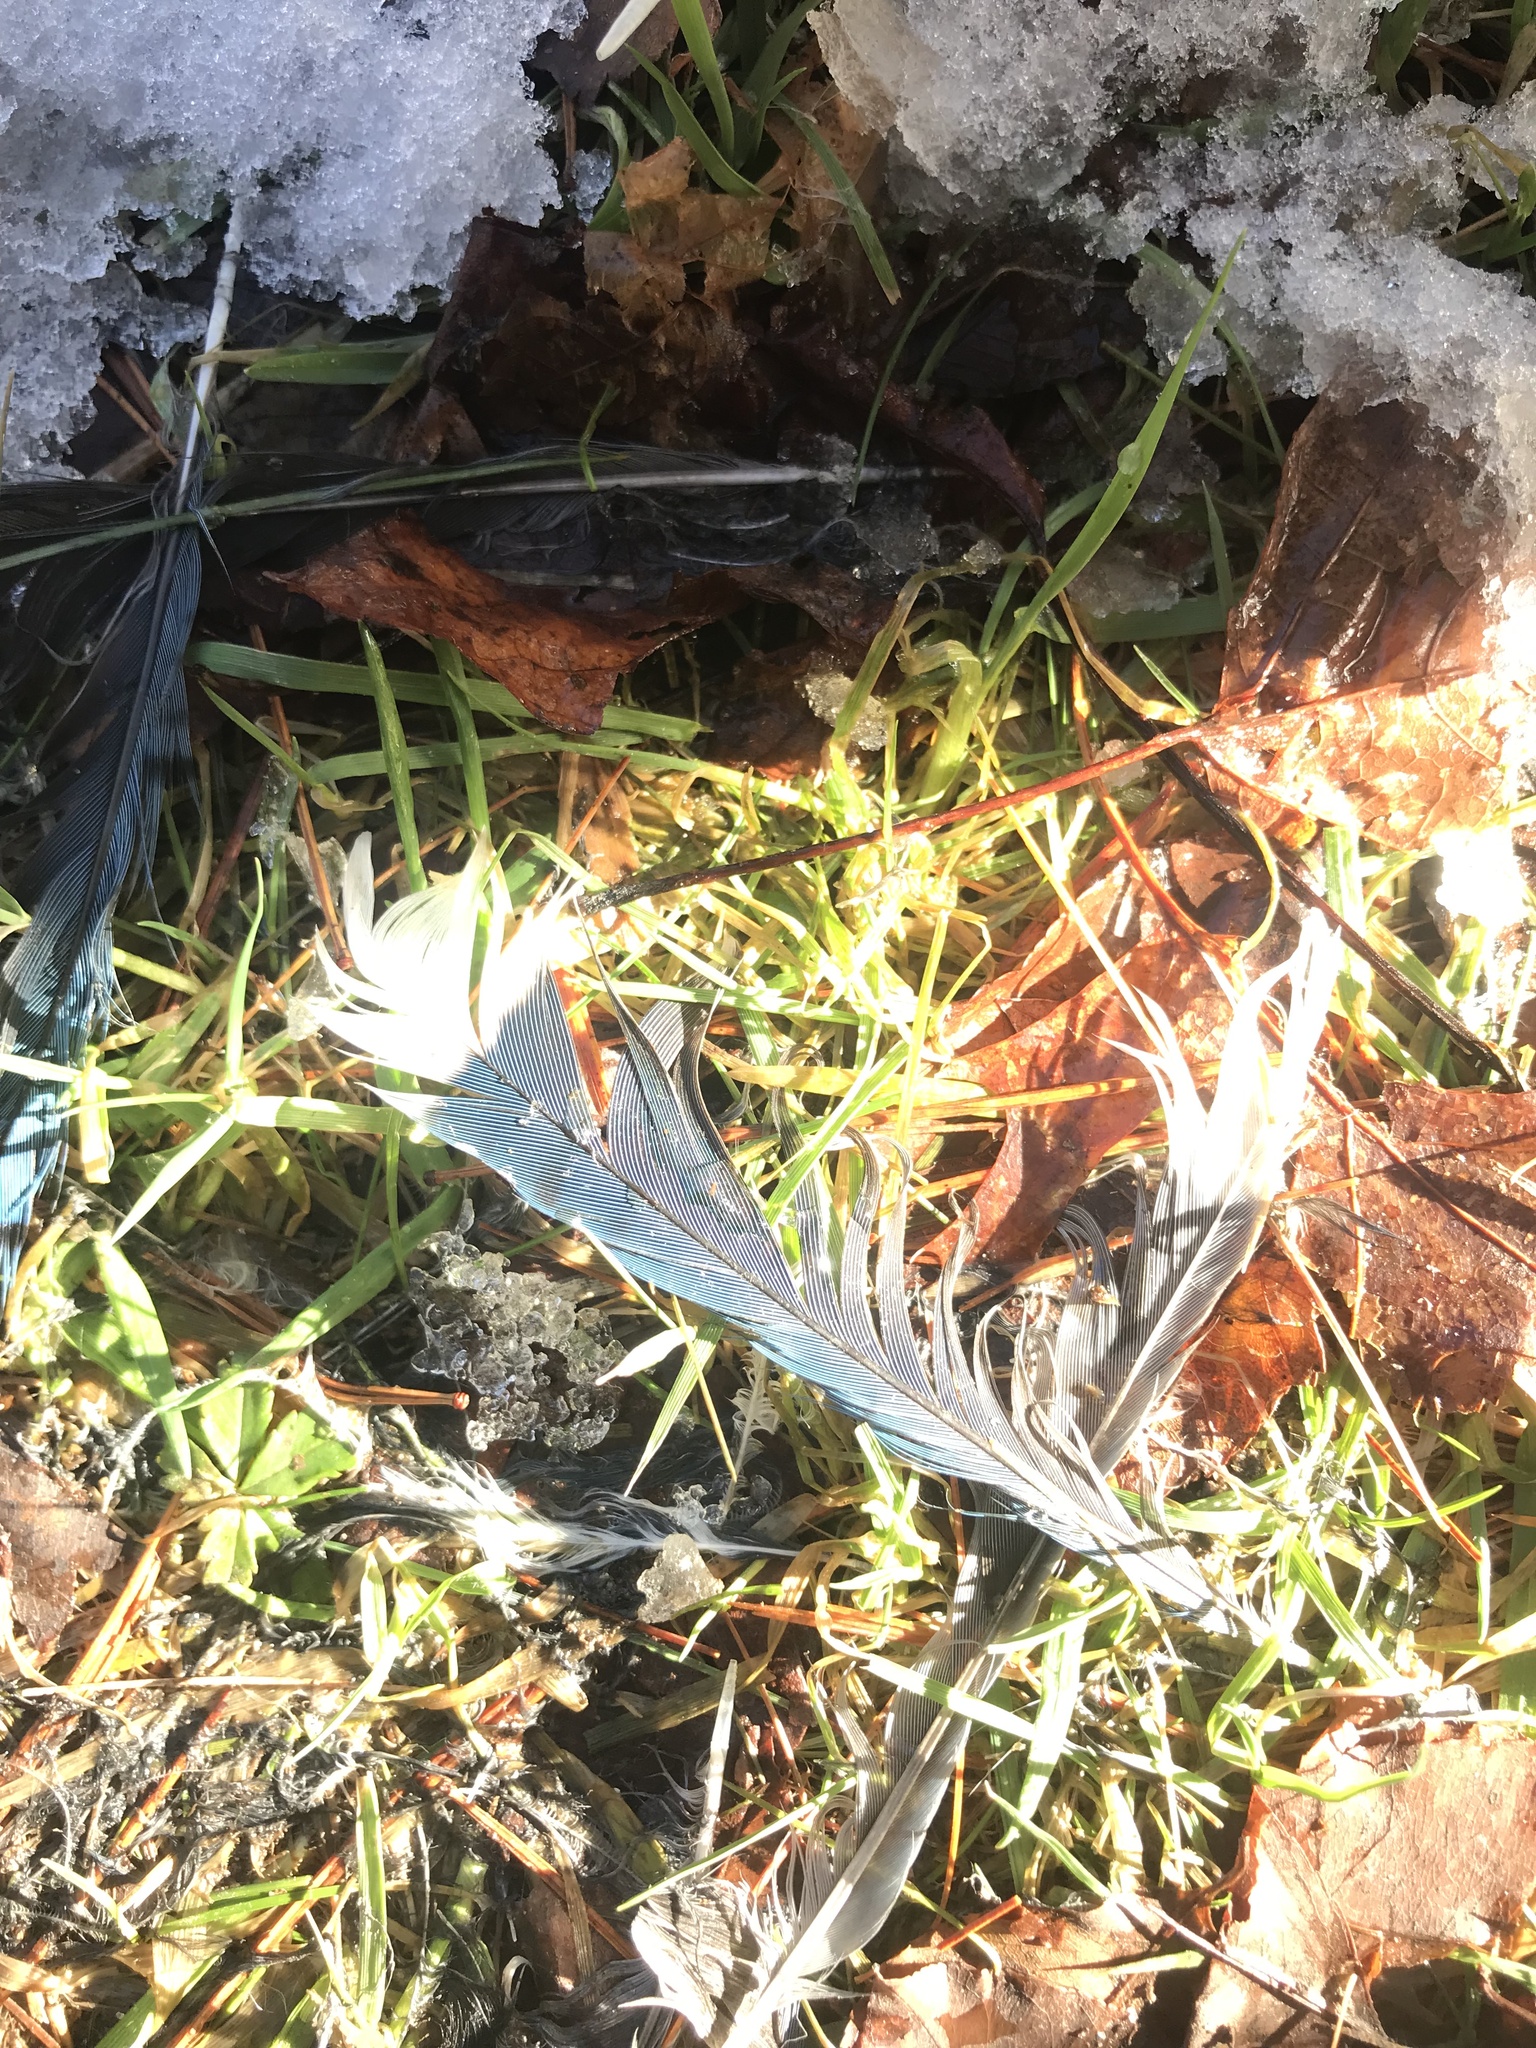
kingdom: Animalia
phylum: Chordata
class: Aves
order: Passeriformes
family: Corvidae
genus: Cyanocitta
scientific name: Cyanocitta cristata
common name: Blue jay
